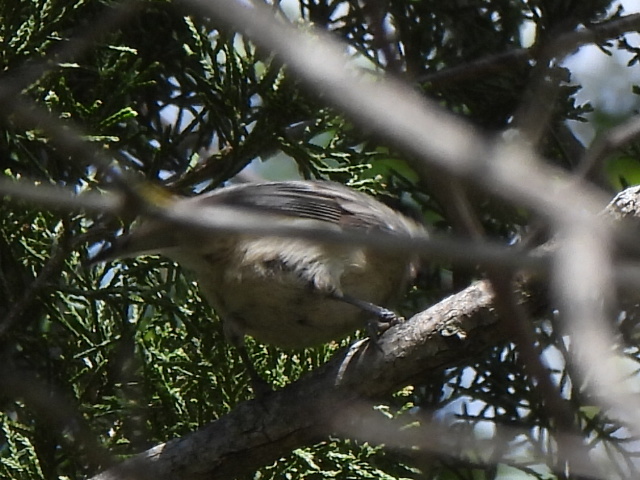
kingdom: Animalia
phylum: Chordata
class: Aves
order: Passeriformes
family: Paridae
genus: Poecile
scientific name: Poecile carolinensis
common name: Carolina chickadee
